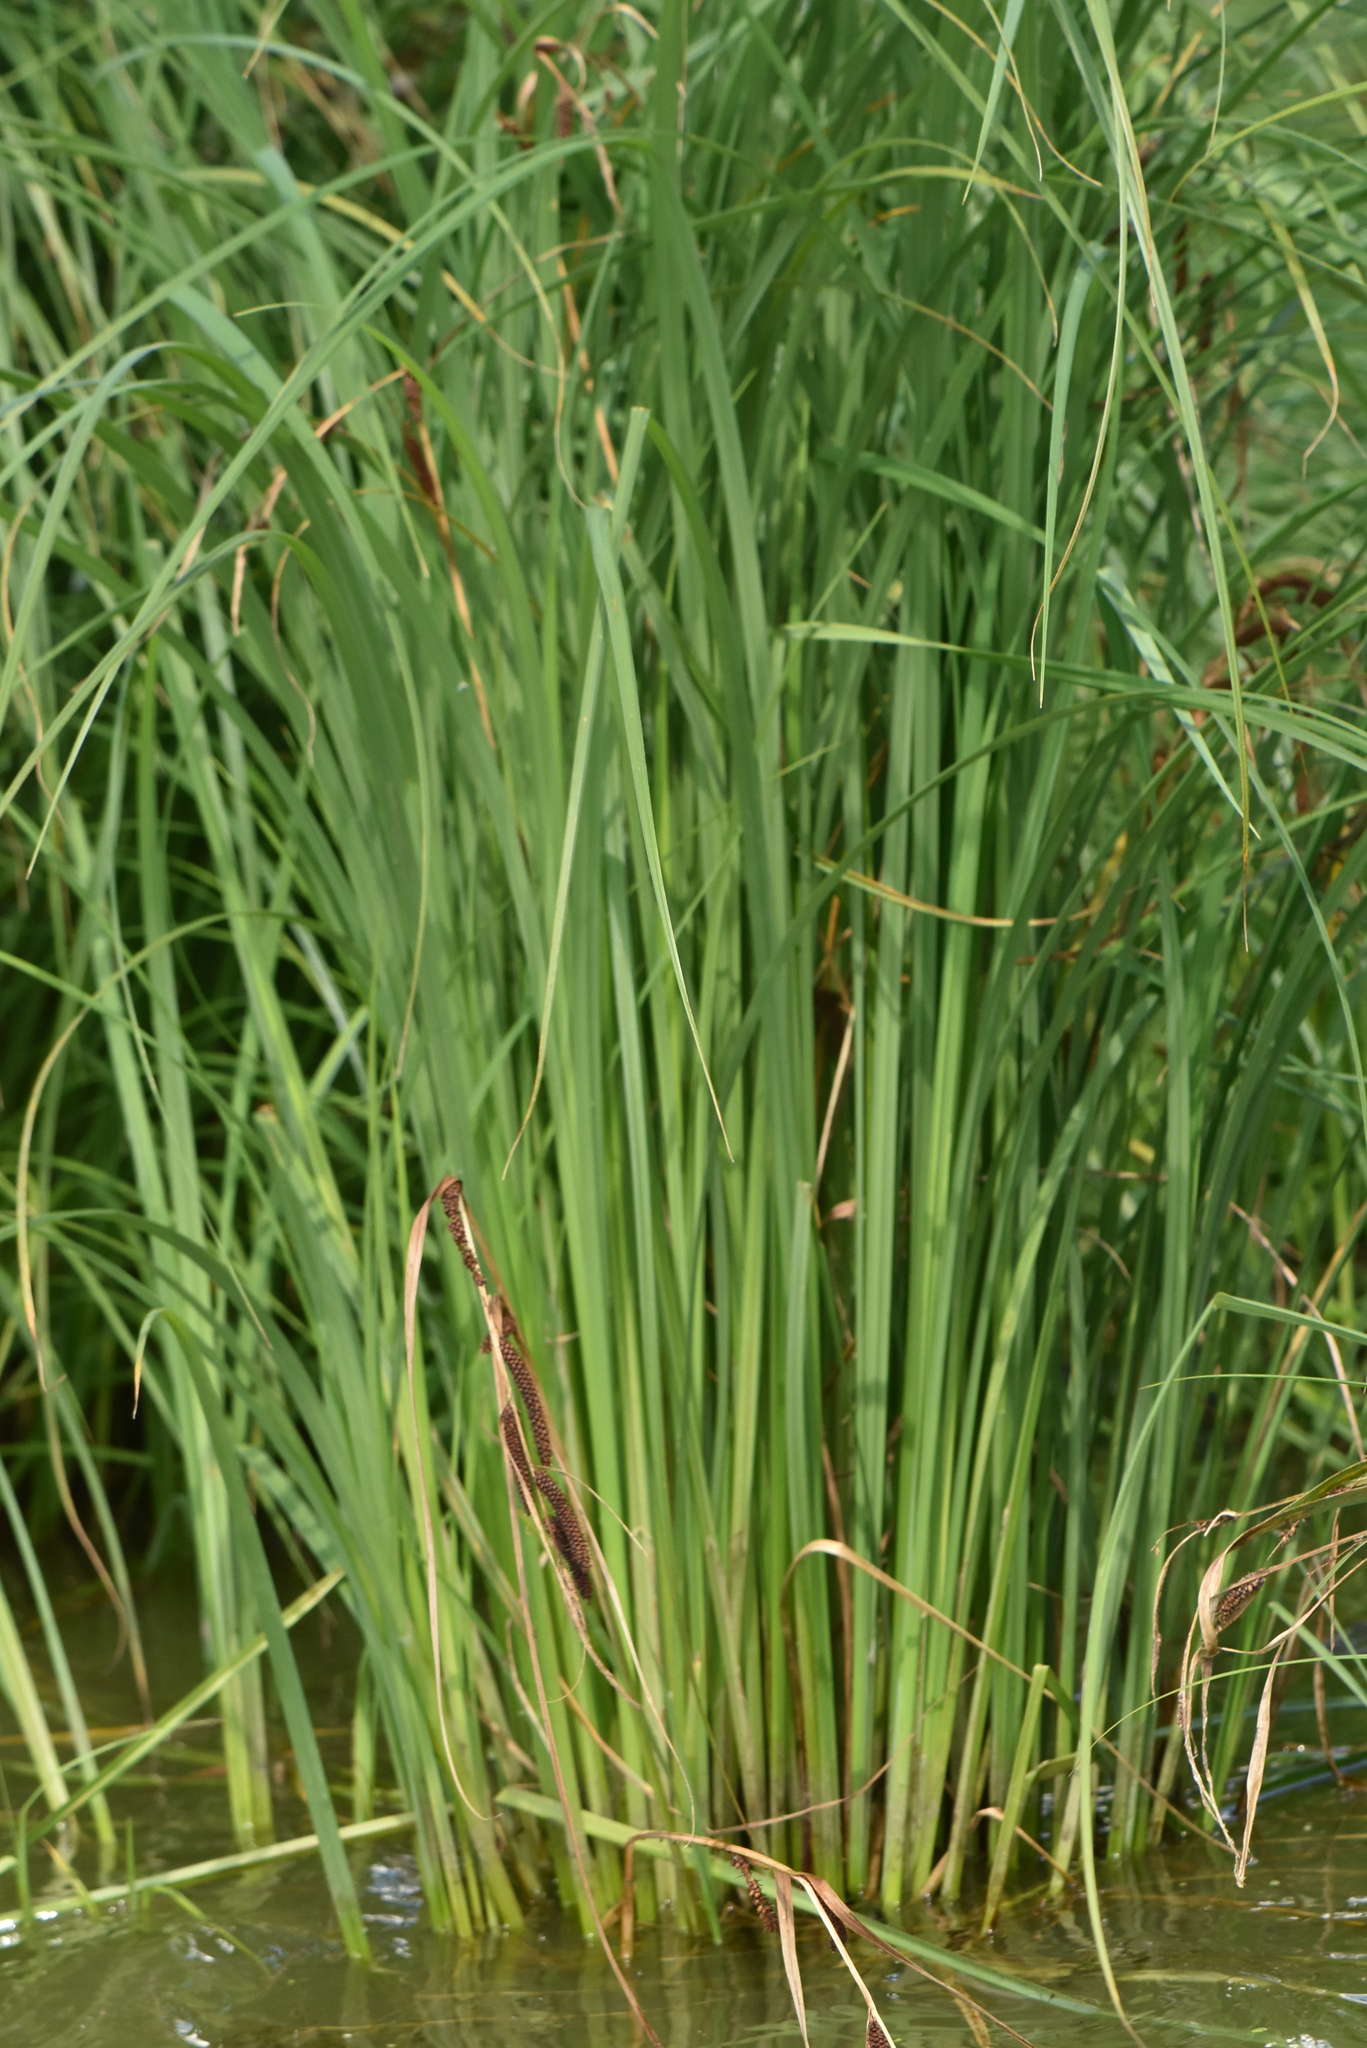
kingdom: Plantae
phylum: Tracheophyta
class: Liliopsida
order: Poales
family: Cyperaceae
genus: Carex
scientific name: Carex acuta
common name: Slender tufted-sedge
